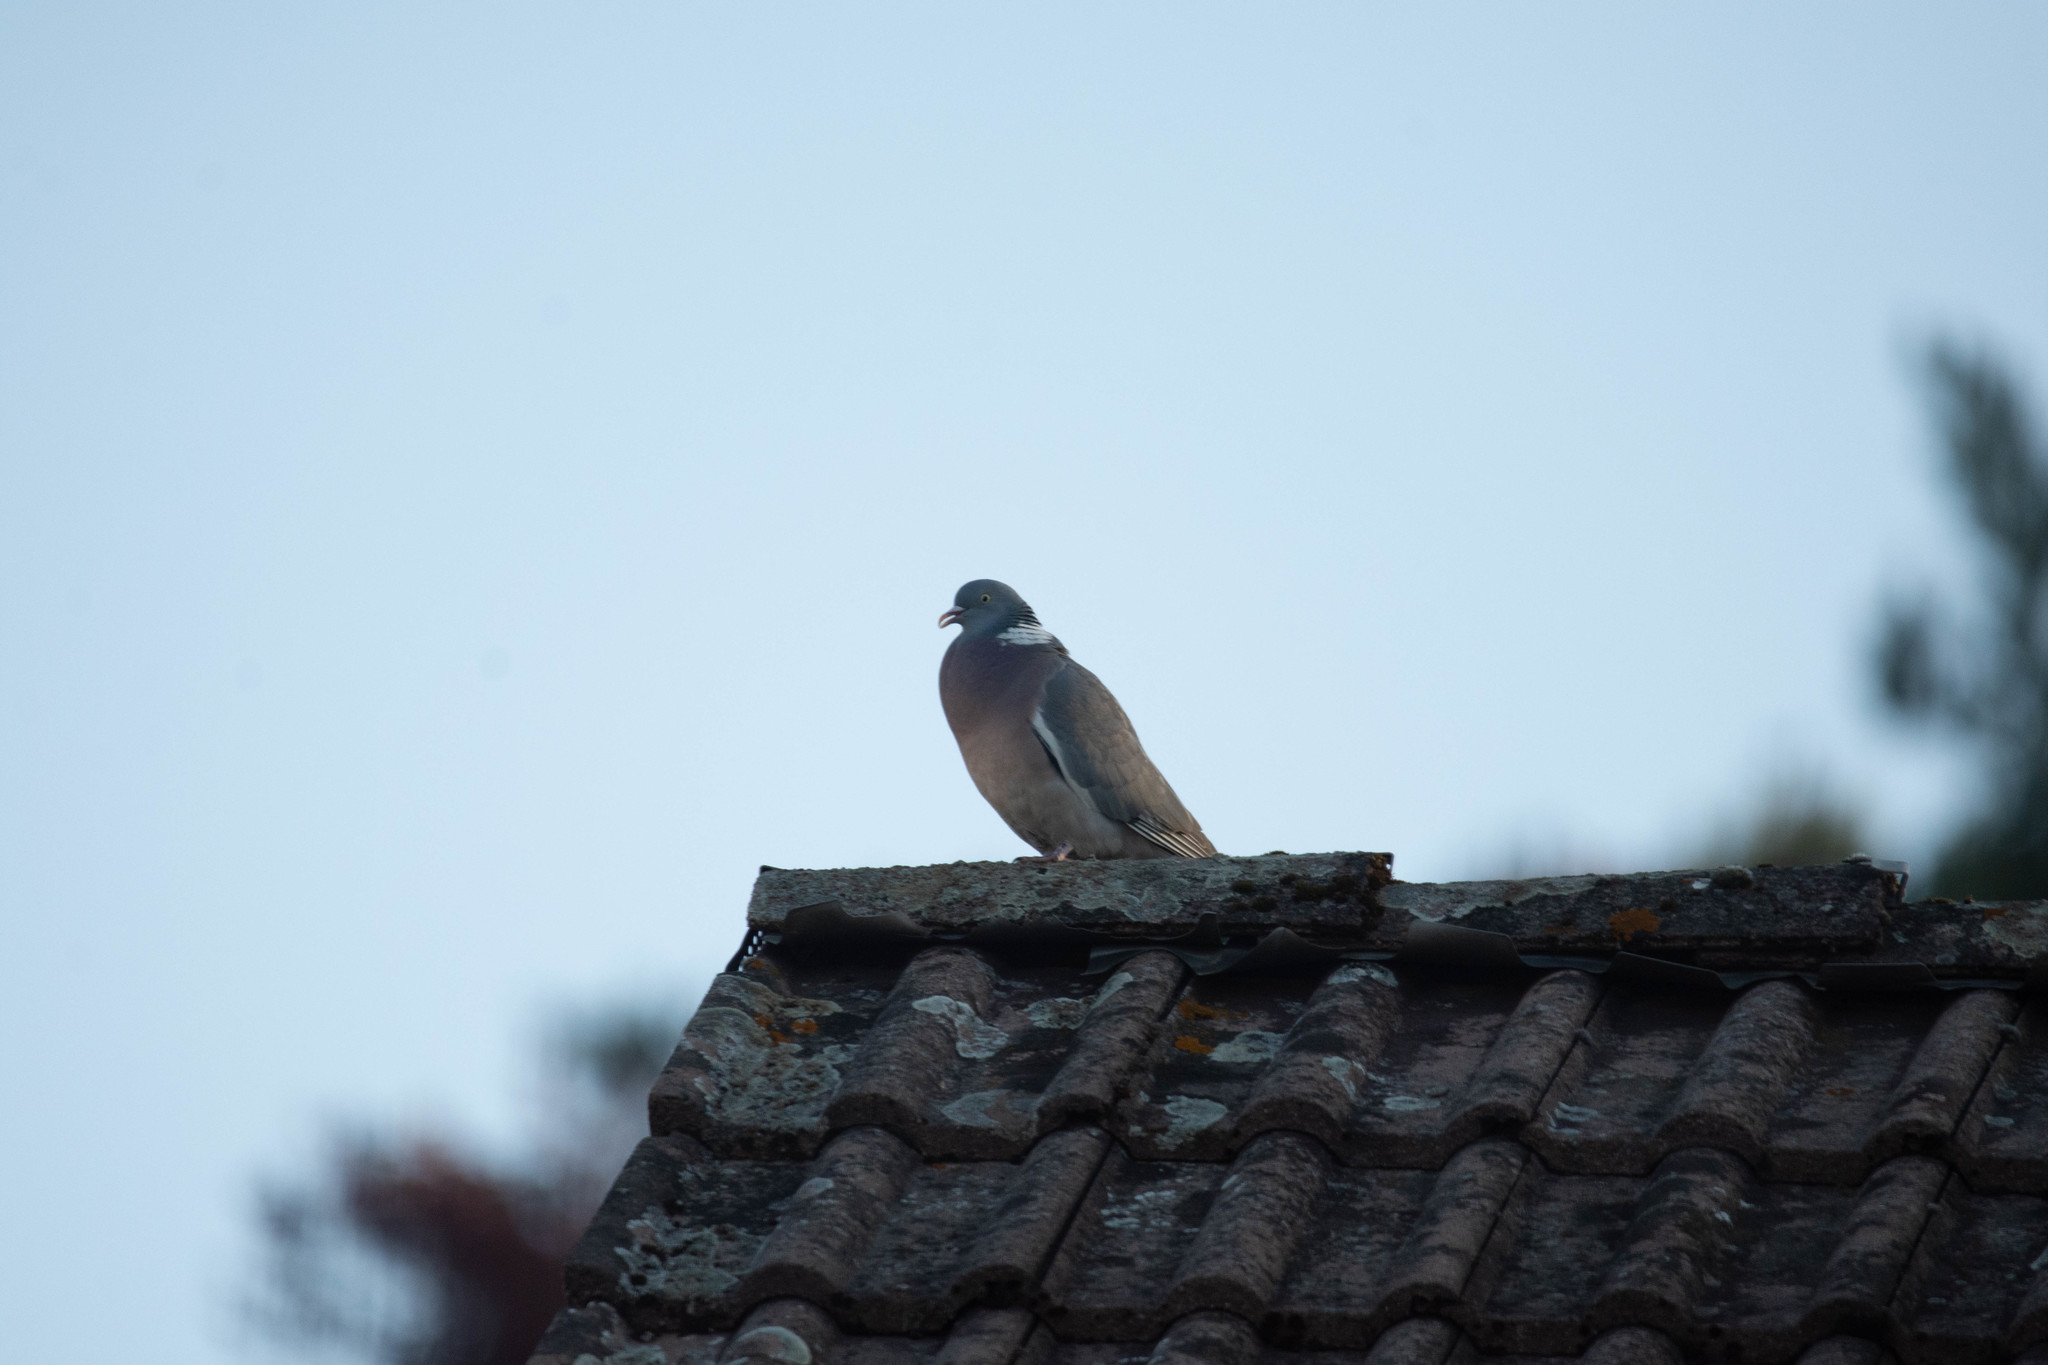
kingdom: Animalia
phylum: Chordata
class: Aves
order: Columbiformes
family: Columbidae
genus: Columba
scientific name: Columba palumbus
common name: Common wood pigeon
